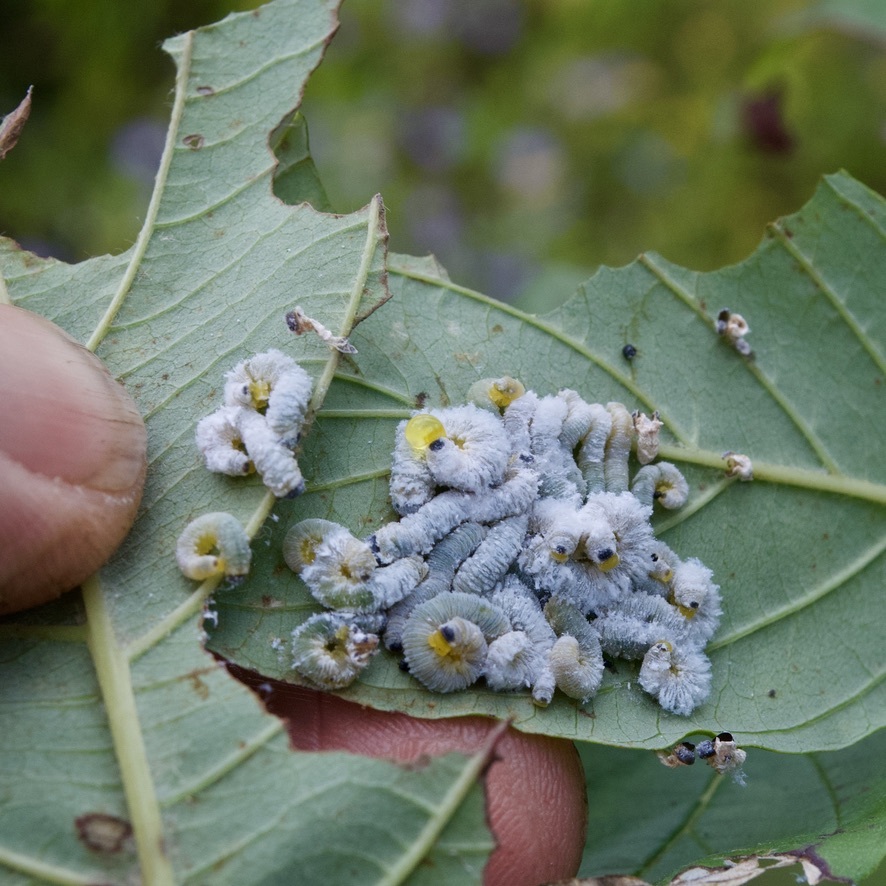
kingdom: Animalia
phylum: Arthropoda
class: Insecta
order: Hymenoptera
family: Tenthredinidae
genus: Macremphytus
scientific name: Macremphytus testaceus
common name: Dogwood sawfly
